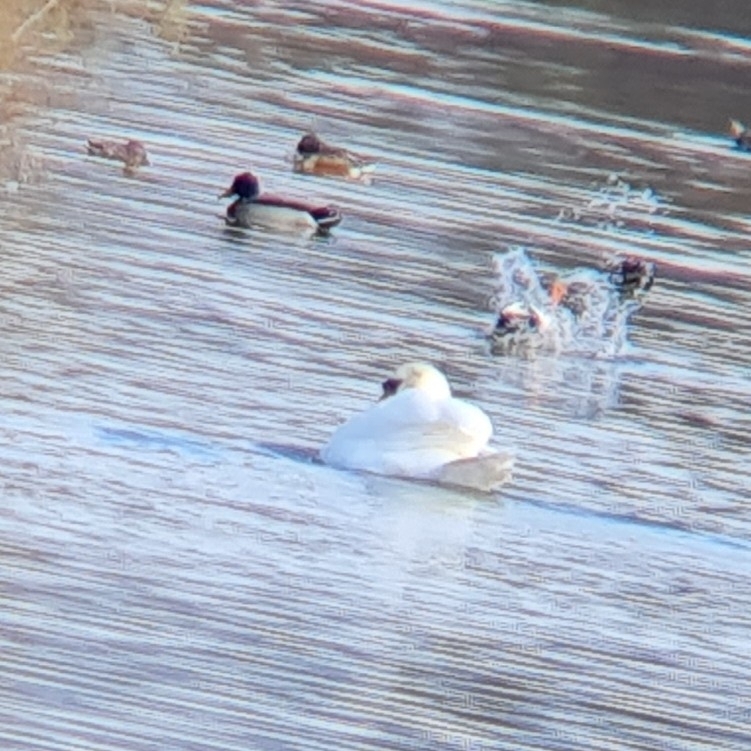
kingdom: Animalia
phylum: Chordata
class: Aves
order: Anseriformes
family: Anatidae
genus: Cygnus
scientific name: Cygnus olor
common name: Mute swan
